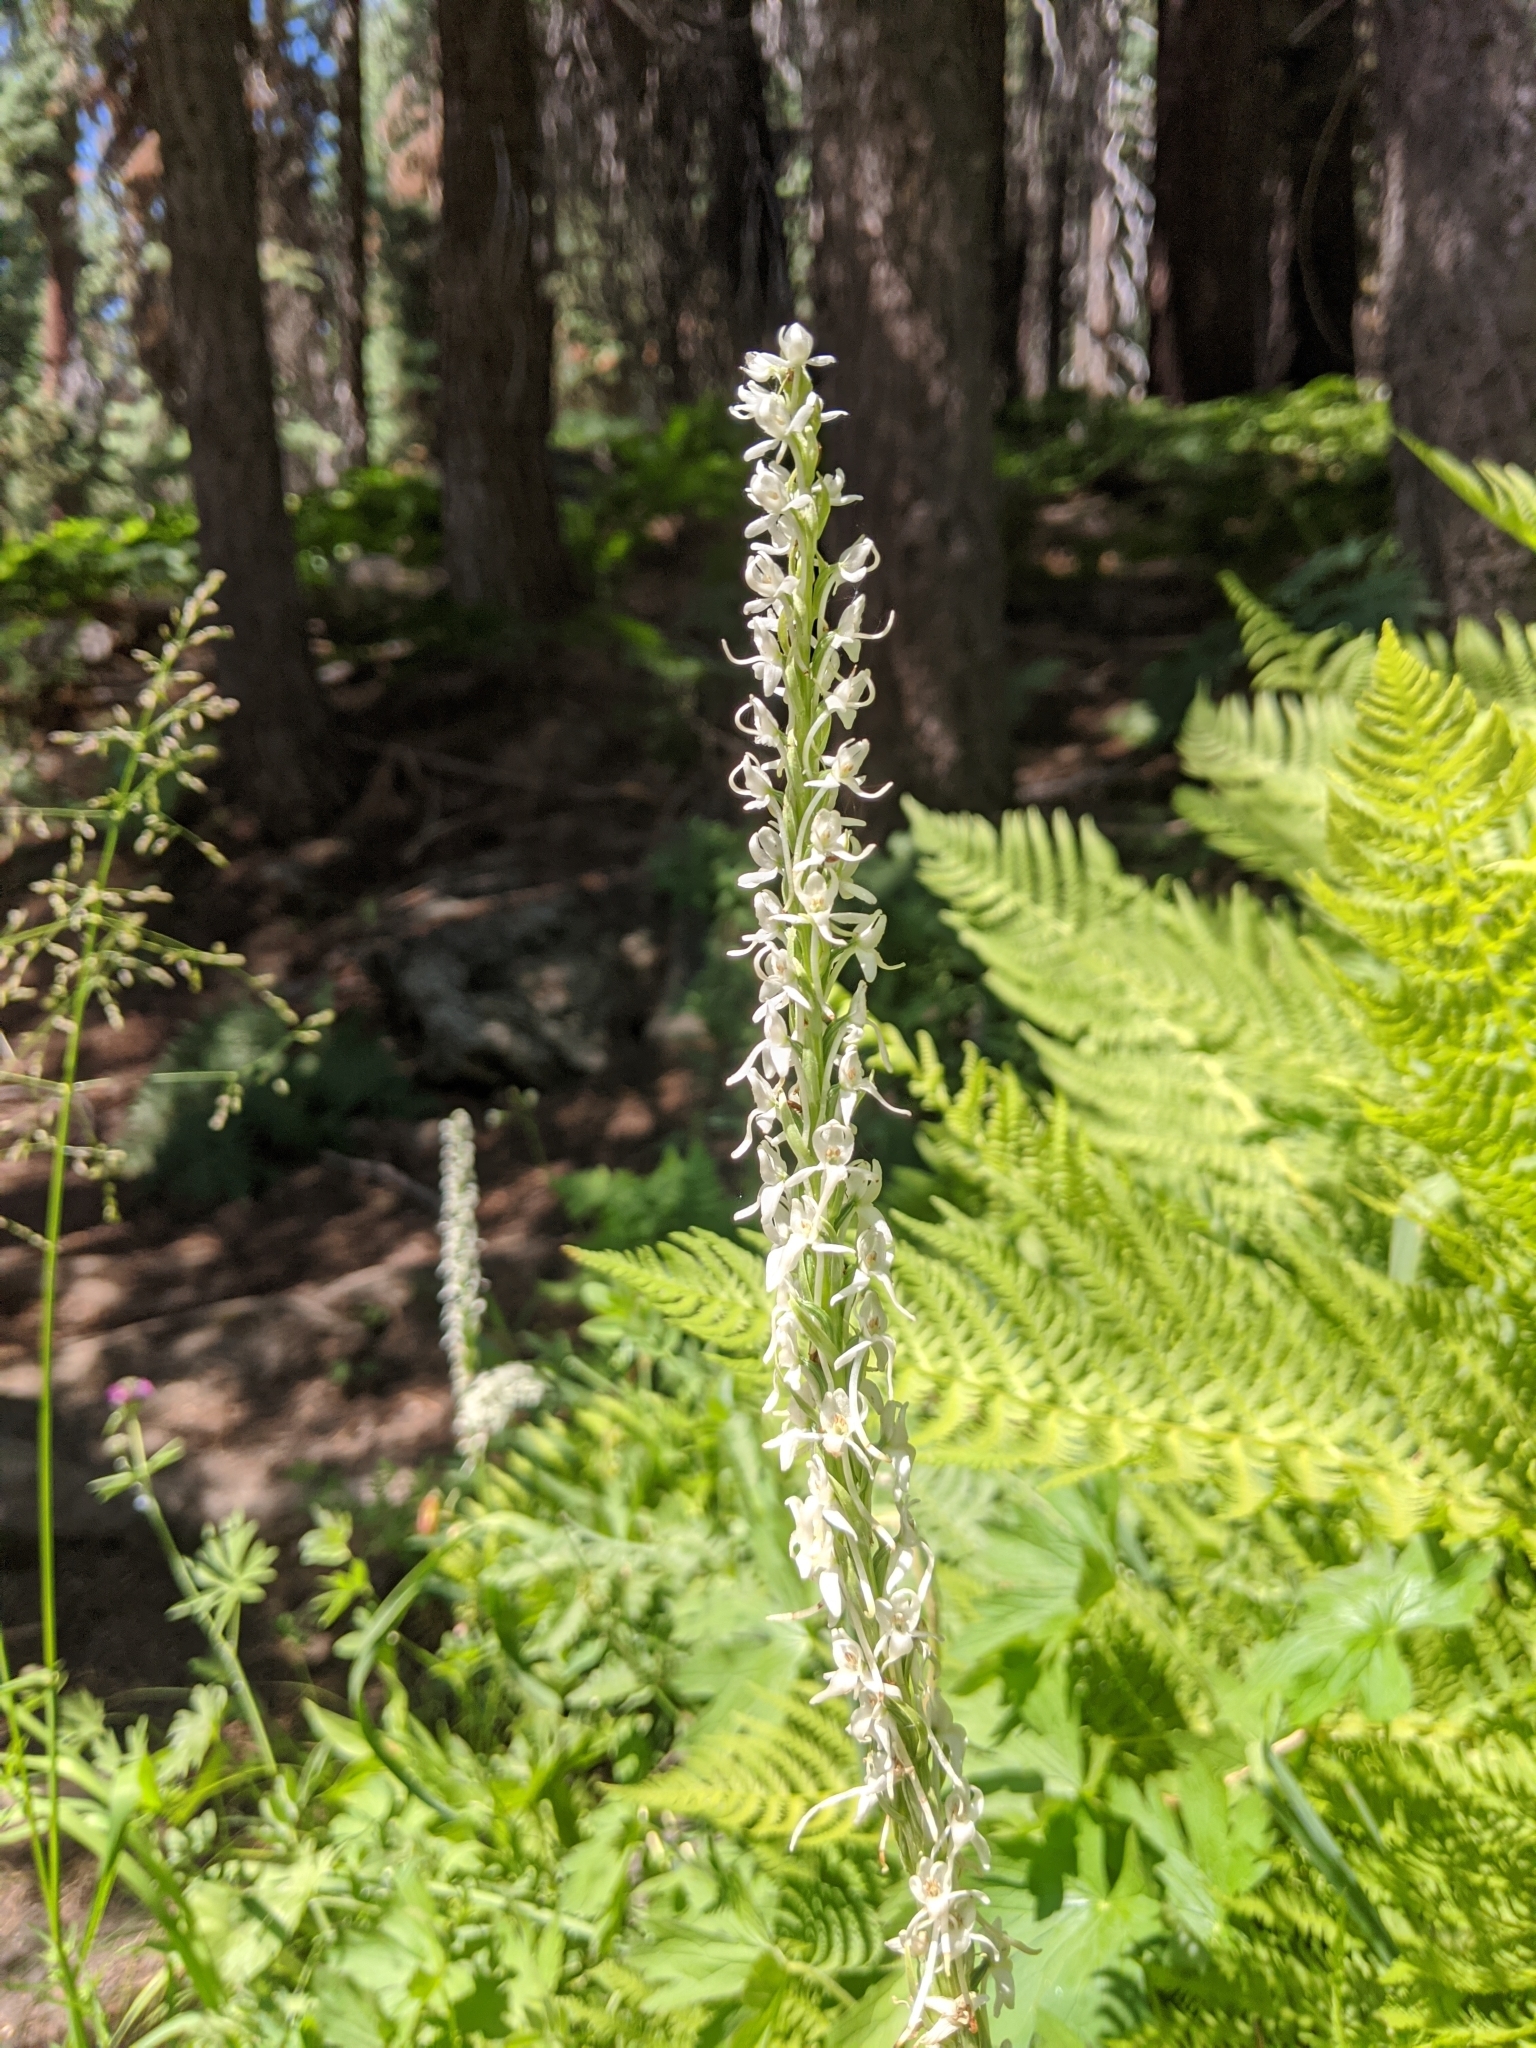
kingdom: Plantae
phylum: Tracheophyta
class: Liliopsida
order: Asparagales
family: Orchidaceae
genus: Platanthera
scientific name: Platanthera dilatata
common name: Bog candles
